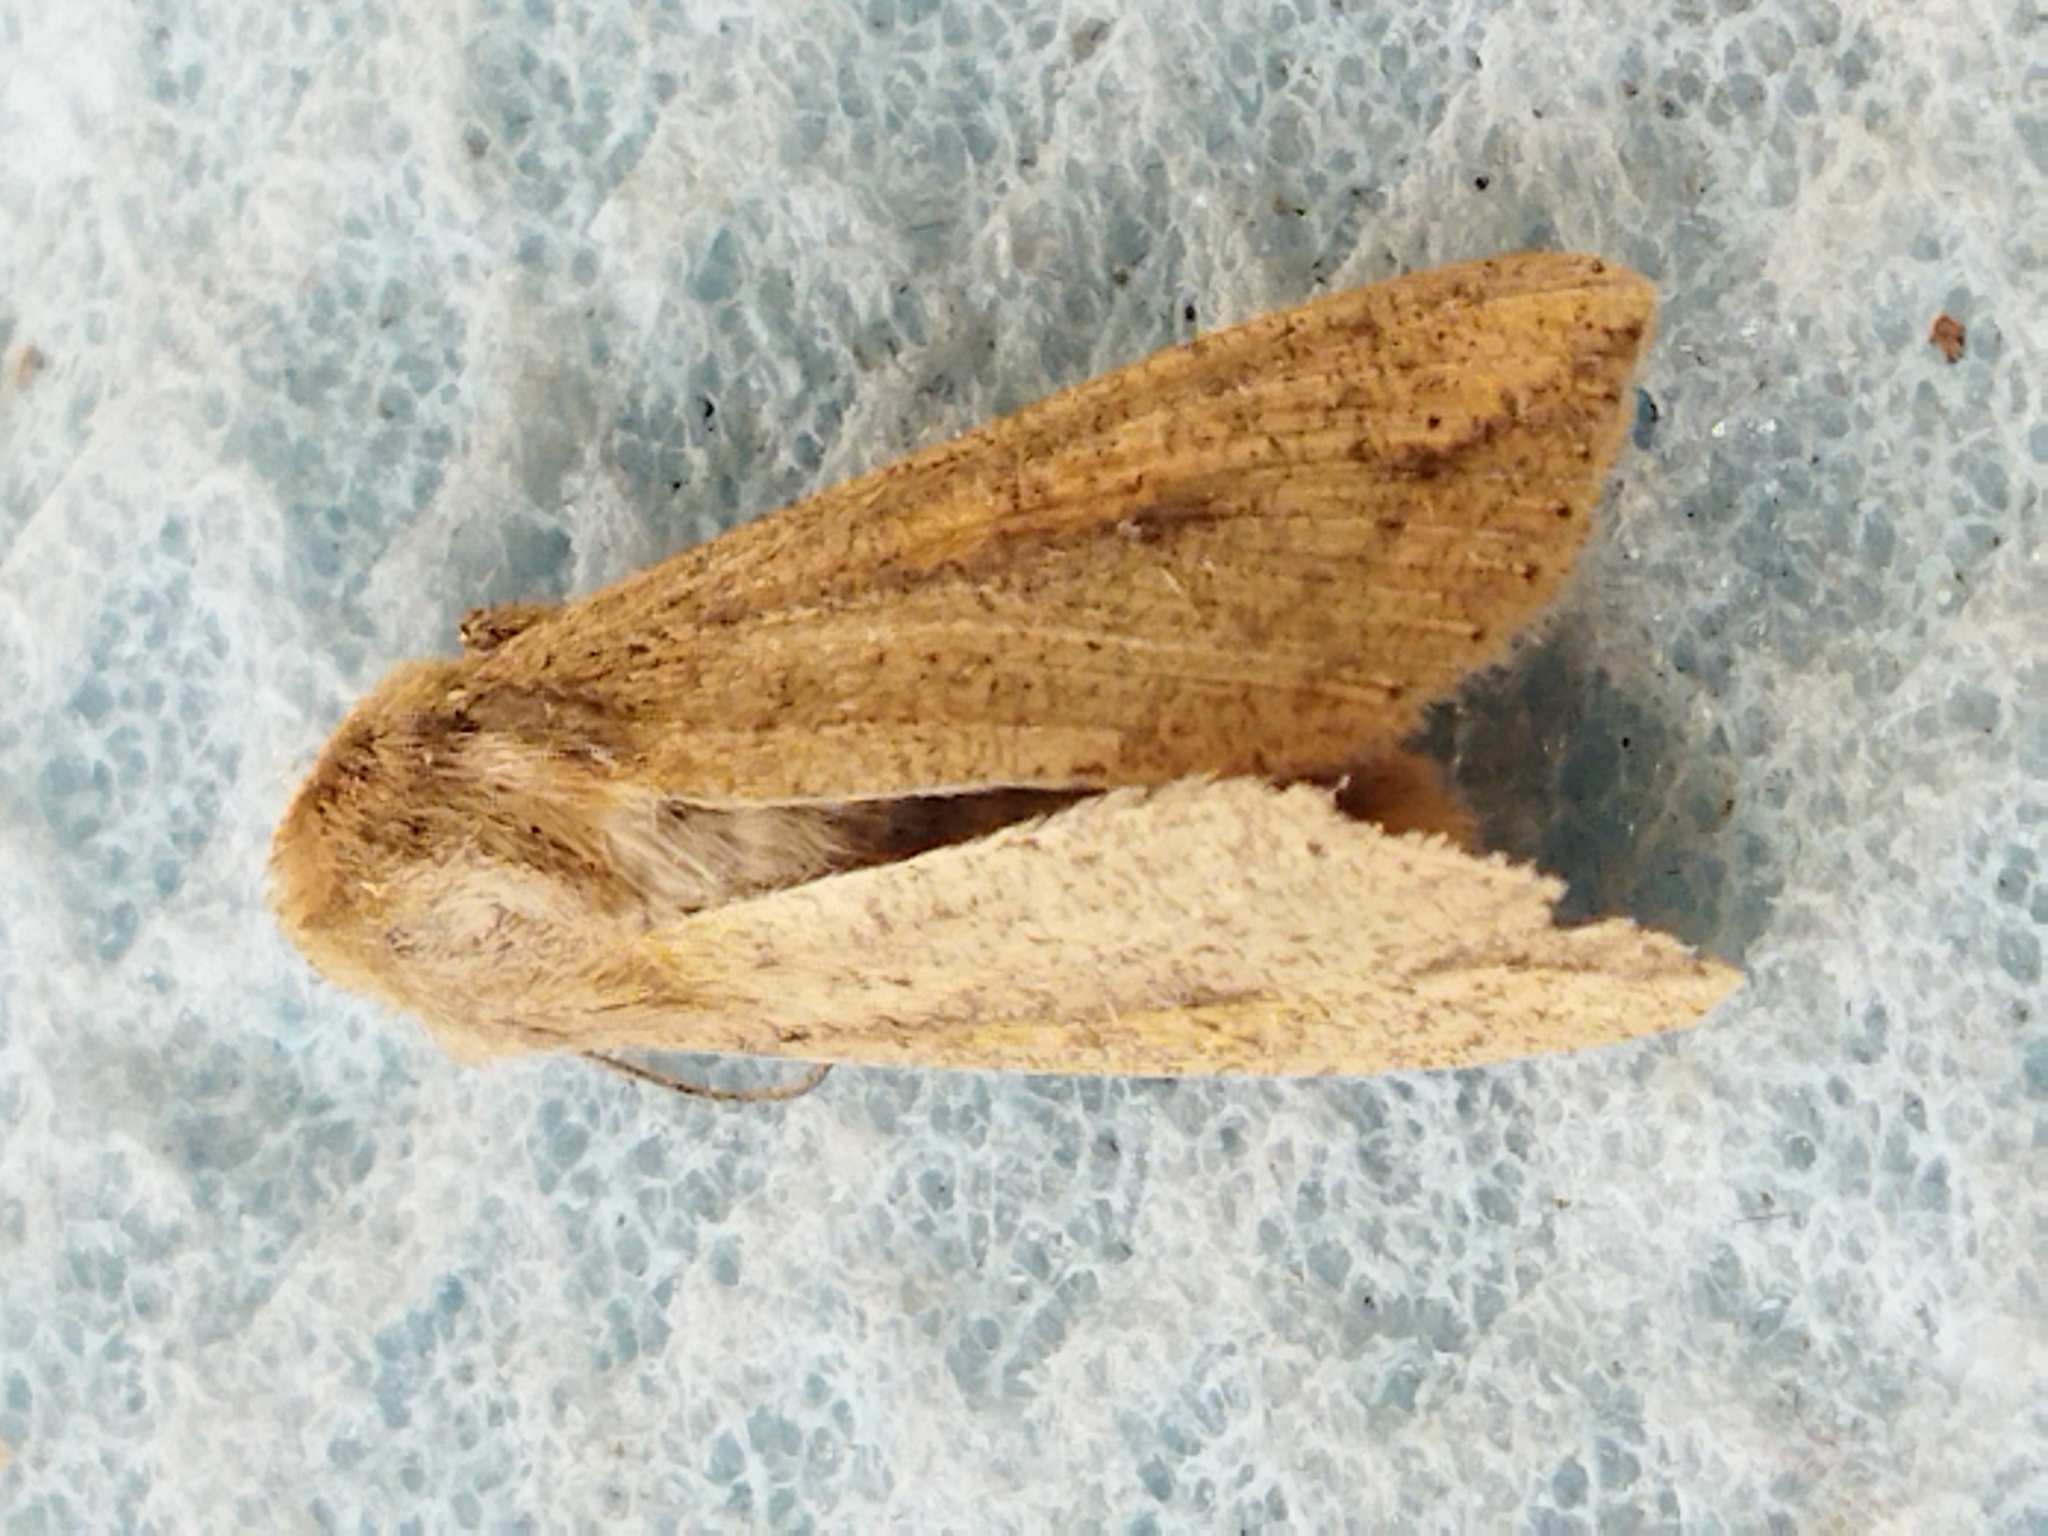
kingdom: Animalia
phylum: Arthropoda
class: Insecta
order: Lepidoptera
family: Noctuidae
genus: Mythimna
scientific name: Mythimna unipuncta
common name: White-speck
